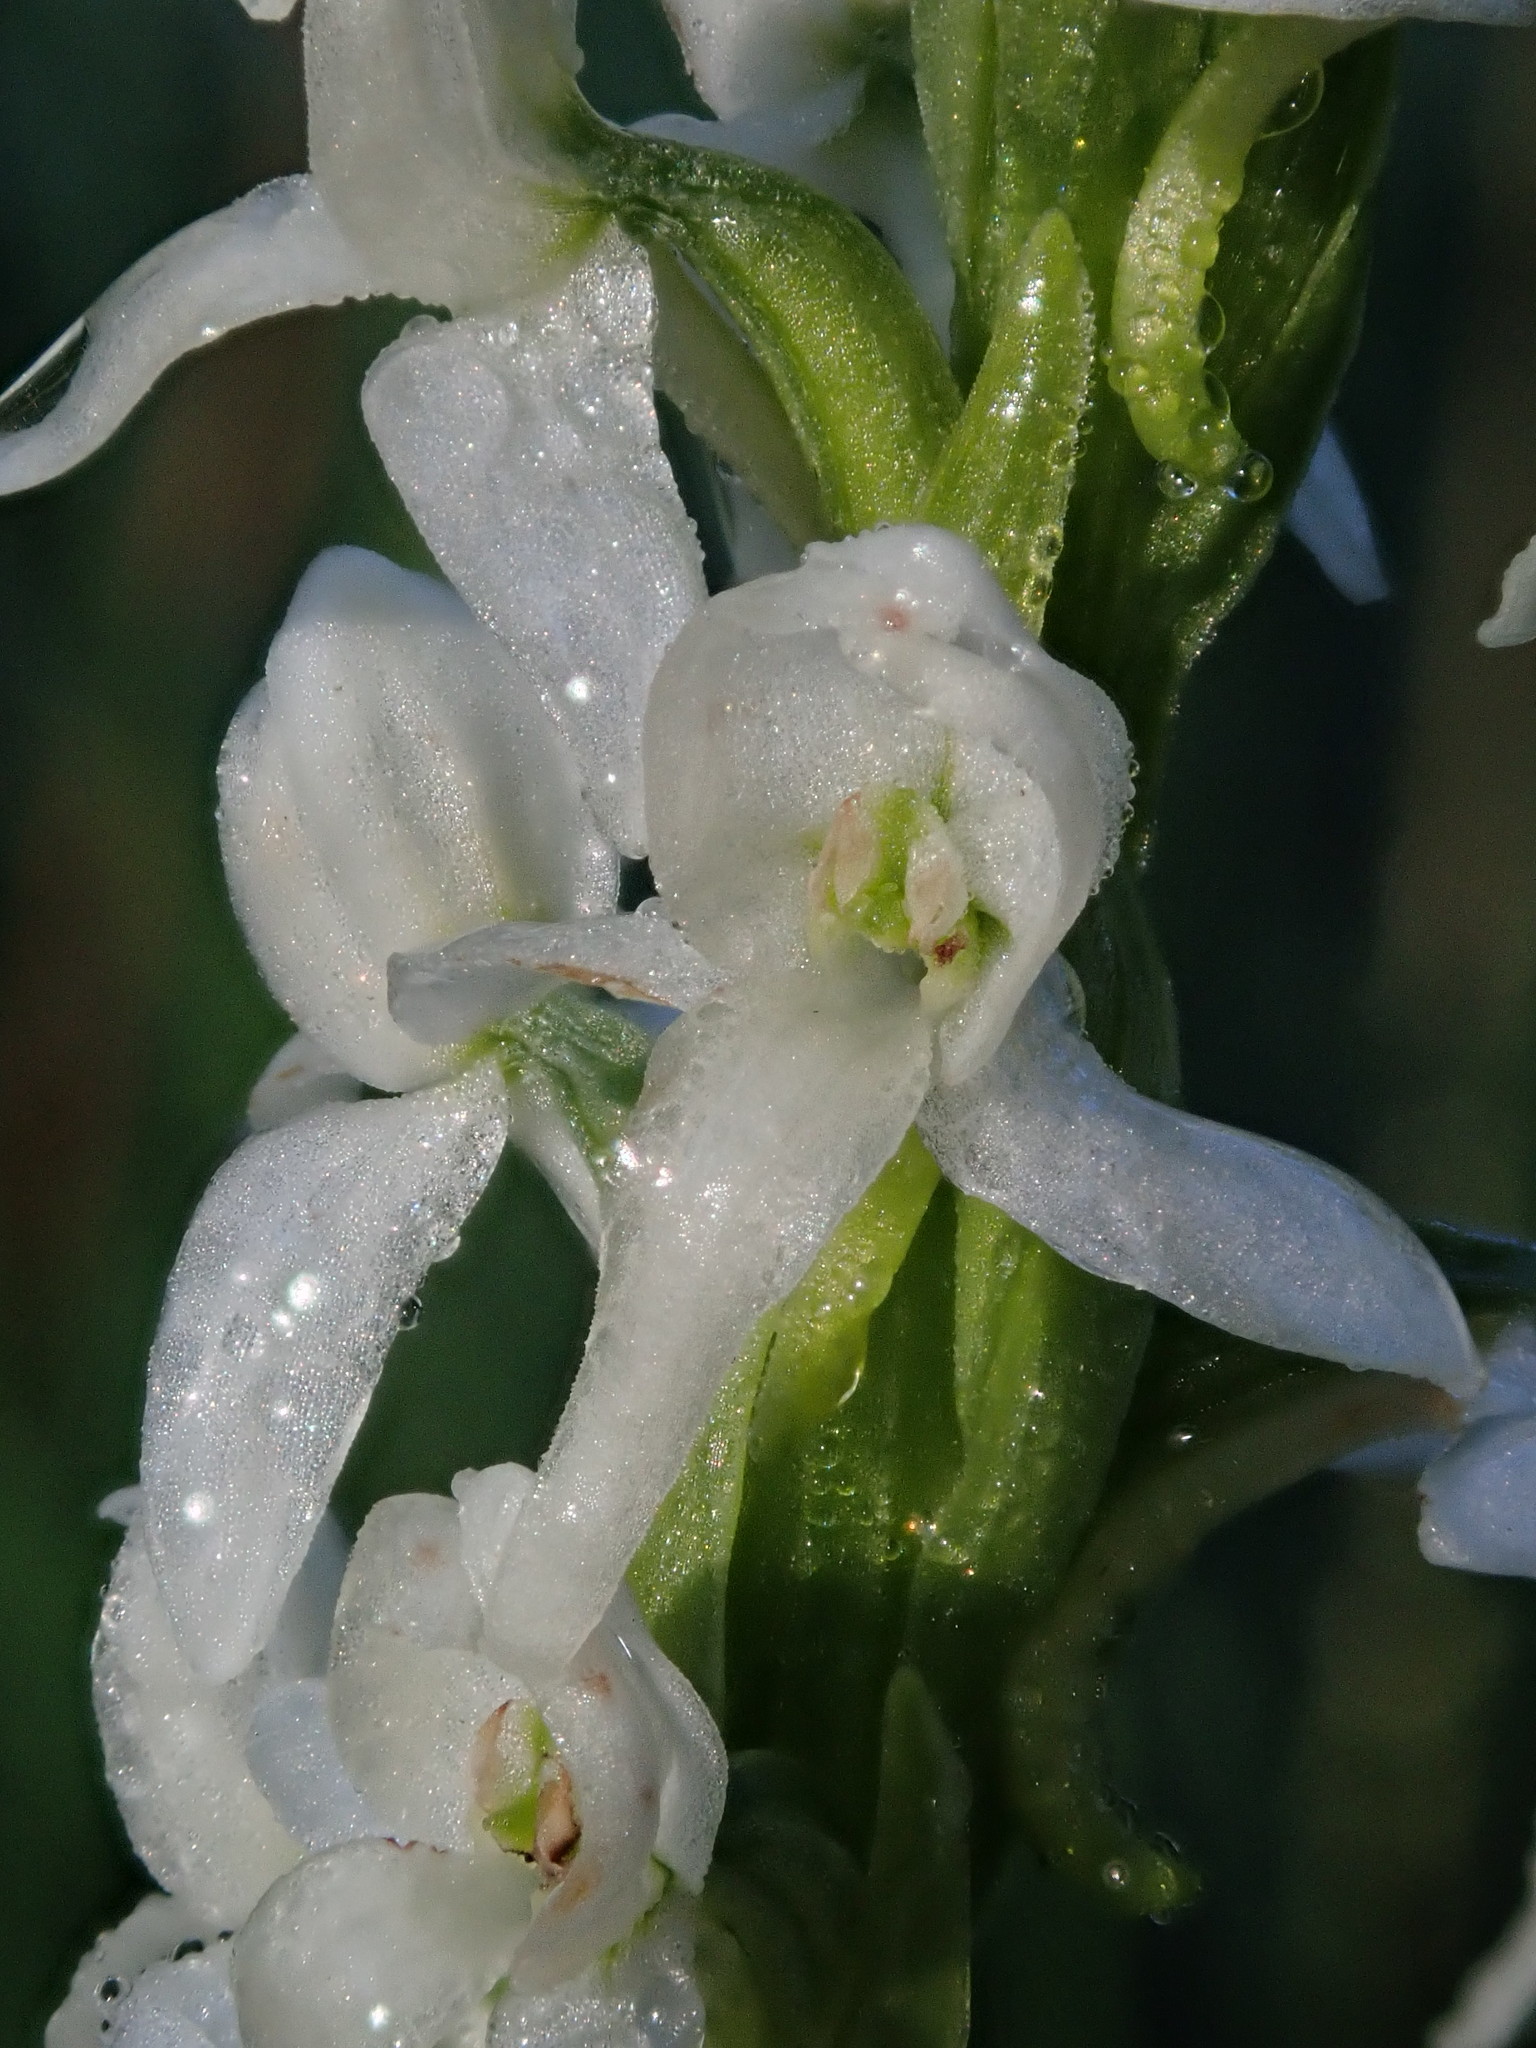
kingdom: Plantae
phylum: Tracheophyta
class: Liliopsida
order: Asparagales
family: Orchidaceae
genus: Platanthera
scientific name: Platanthera dilatata
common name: Bog candles
